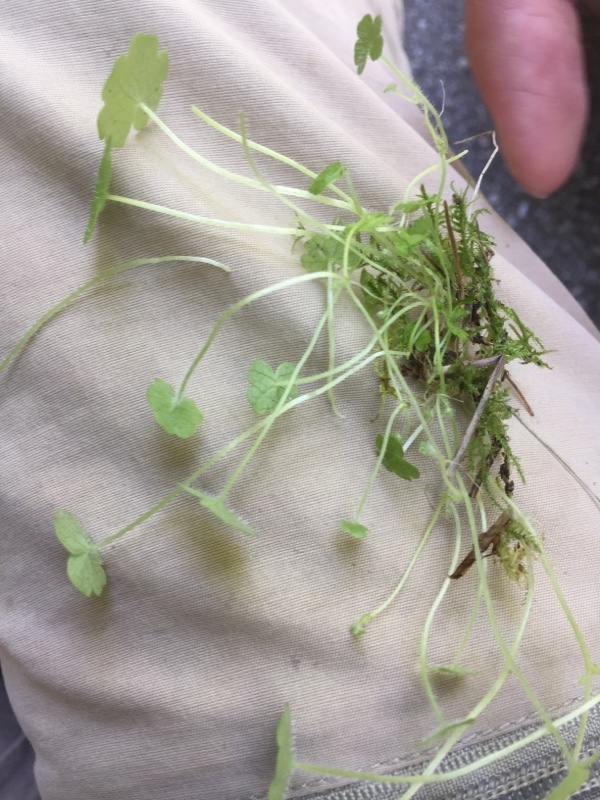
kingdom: Plantae
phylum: Tracheophyta
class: Magnoliopsida
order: Lamiales
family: Plantaginaceae
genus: Sibthorpia
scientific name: Sibthorpia europaea
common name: Cornish moneywort
